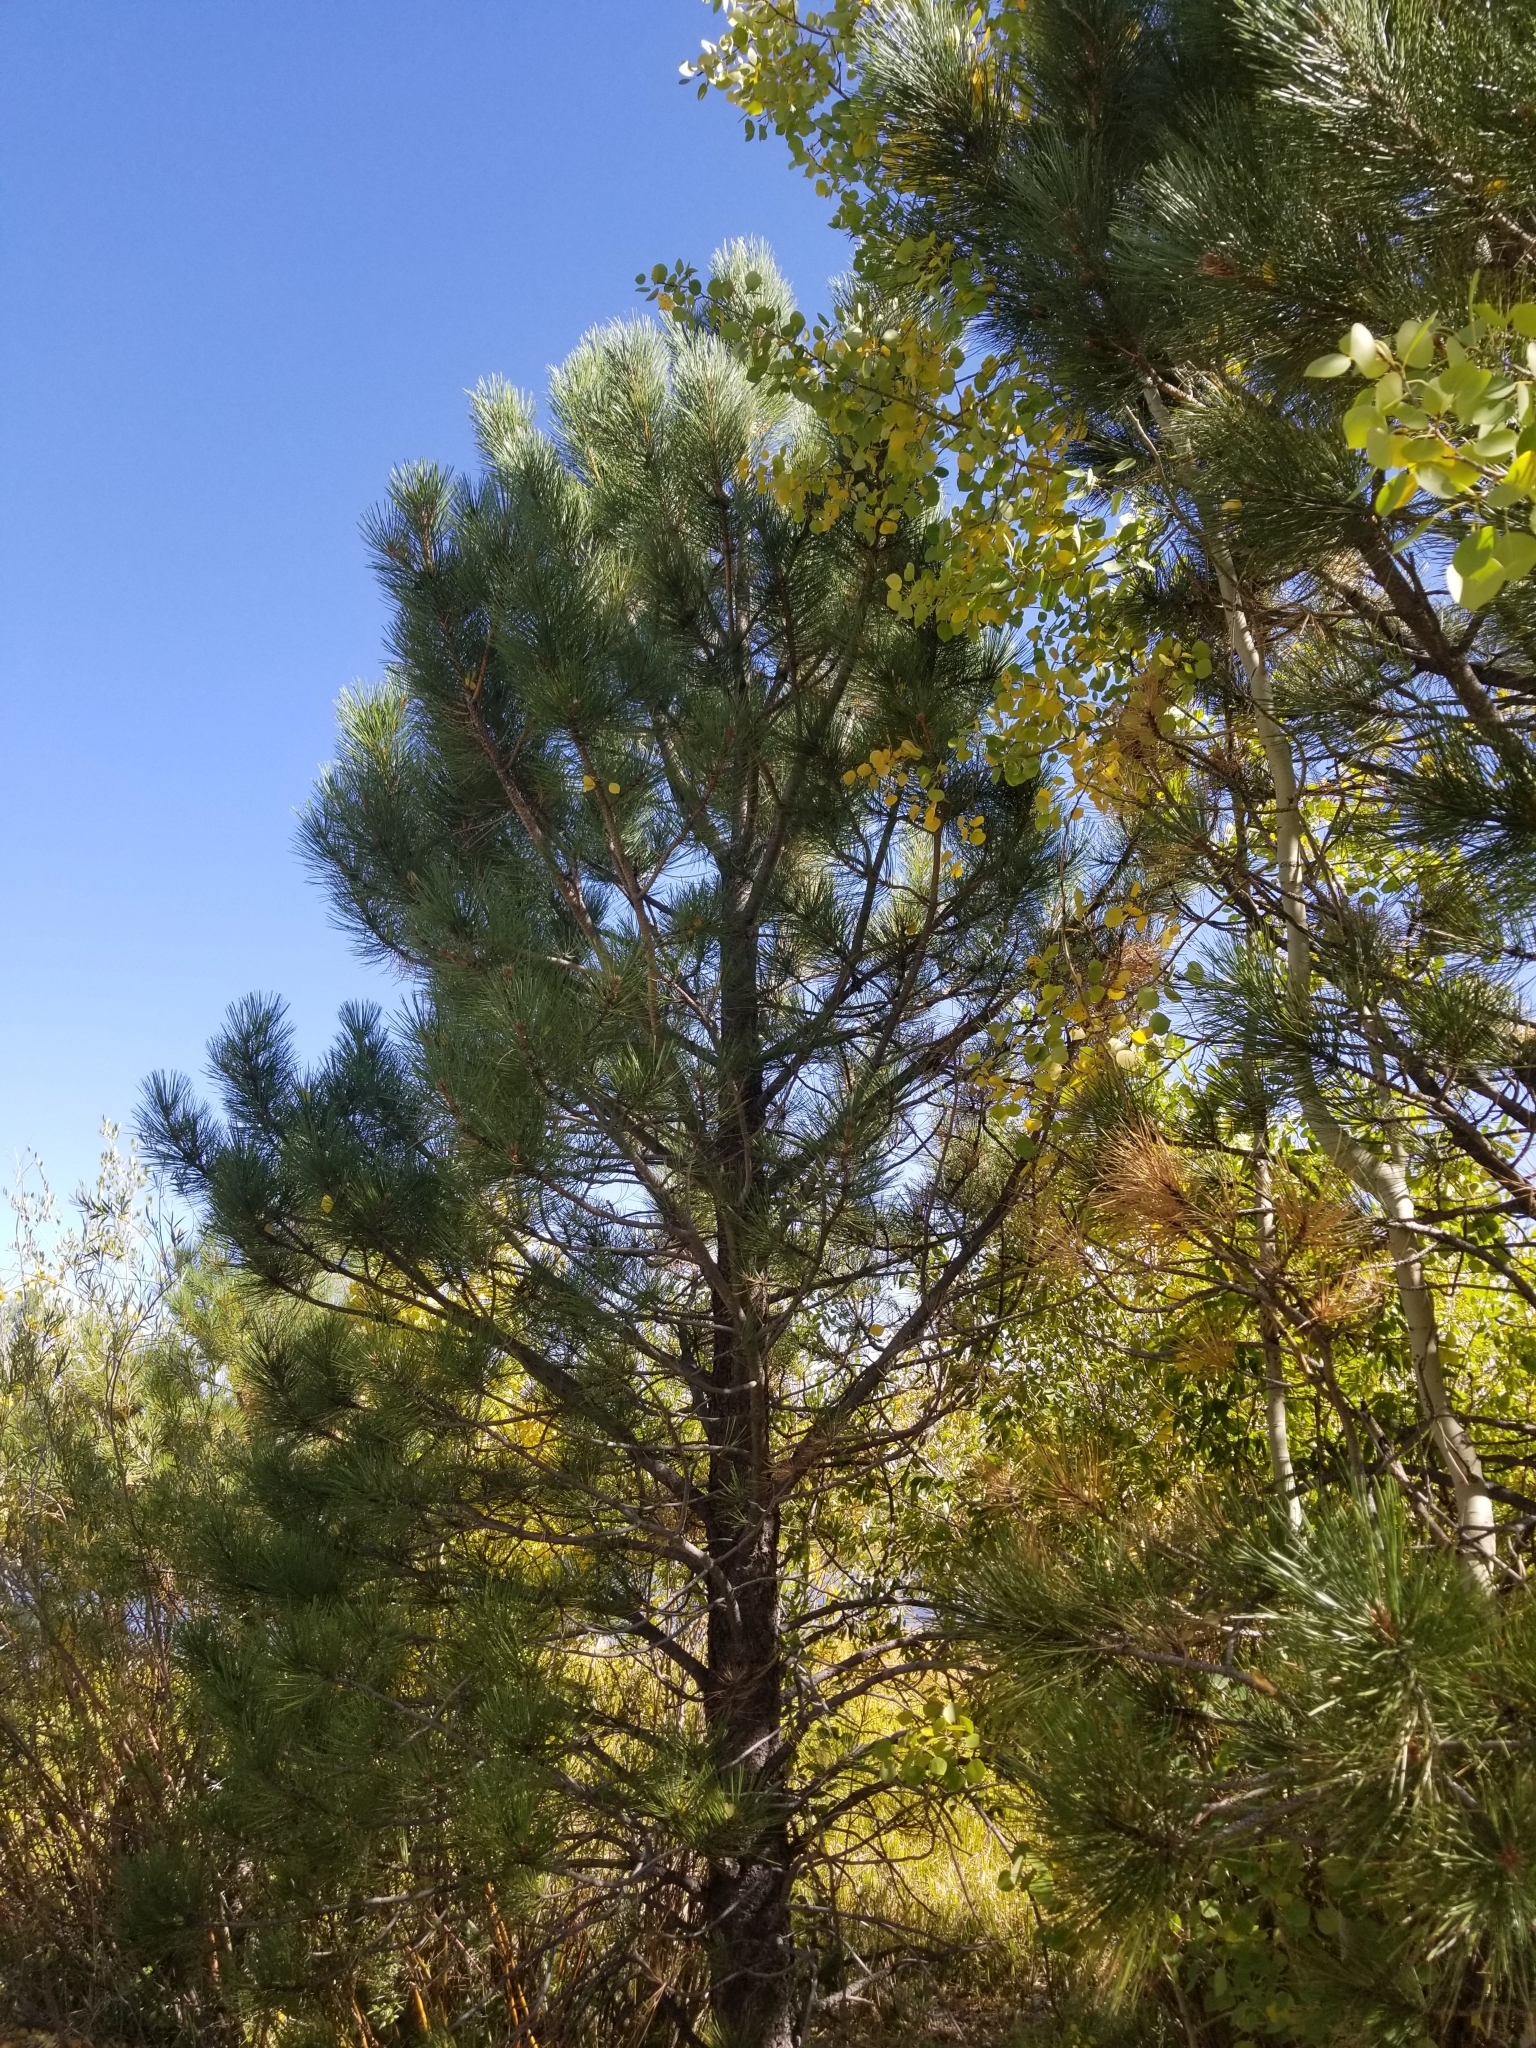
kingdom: Plantae
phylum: Tracheophyta
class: Pinopsida
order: Pinales
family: Pinaceae
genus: Pinus
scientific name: Pinus ponderosa
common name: Western yellow-pine
